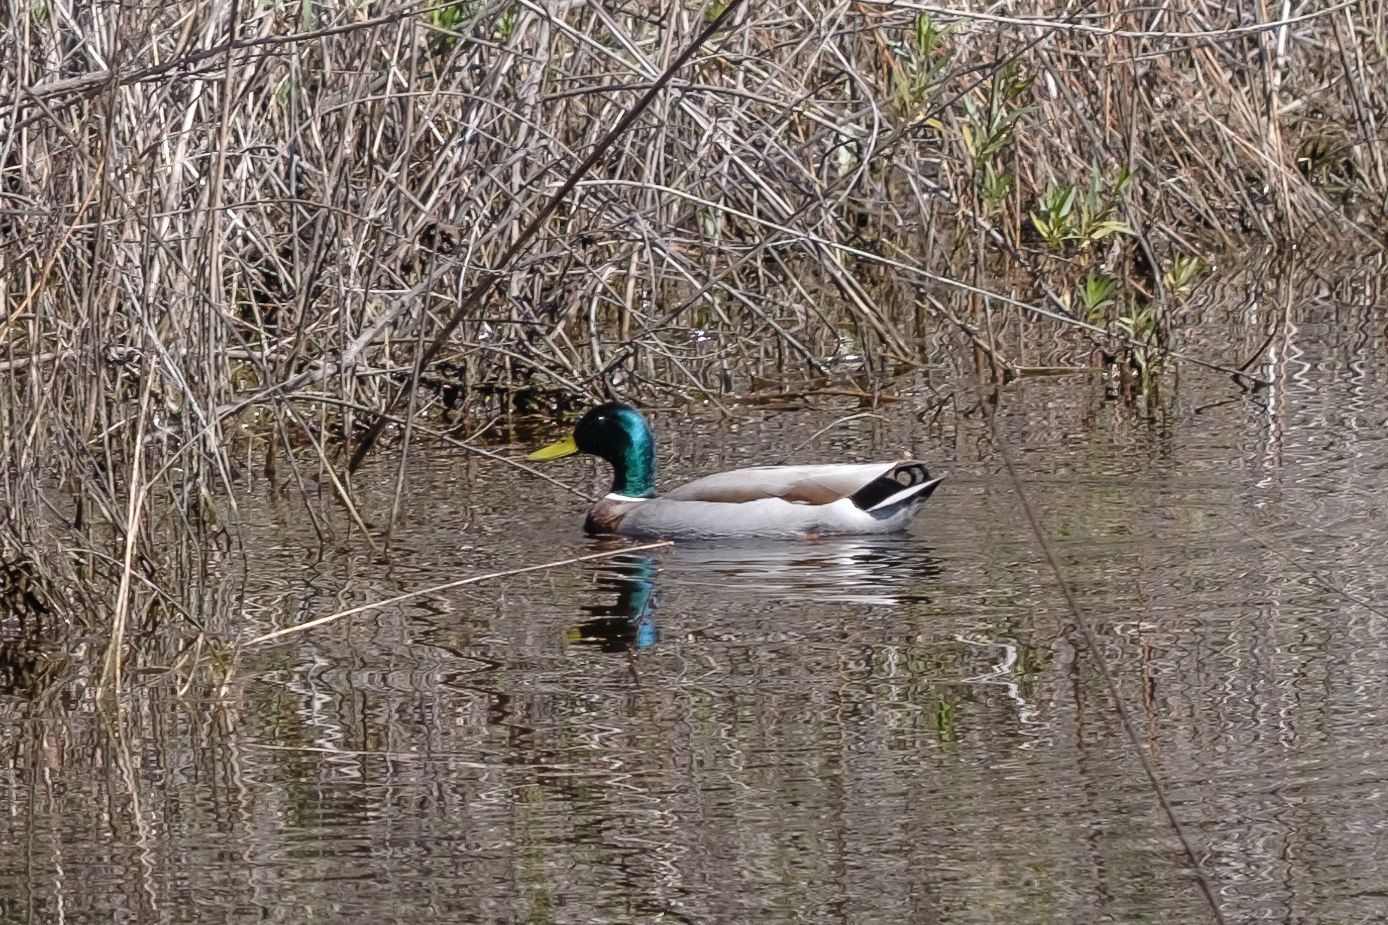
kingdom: Animalia
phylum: Chordata
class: Aves
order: Anseriformes
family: Anatidae
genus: Anas
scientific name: Anas platyrhynchos
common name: Mallard
